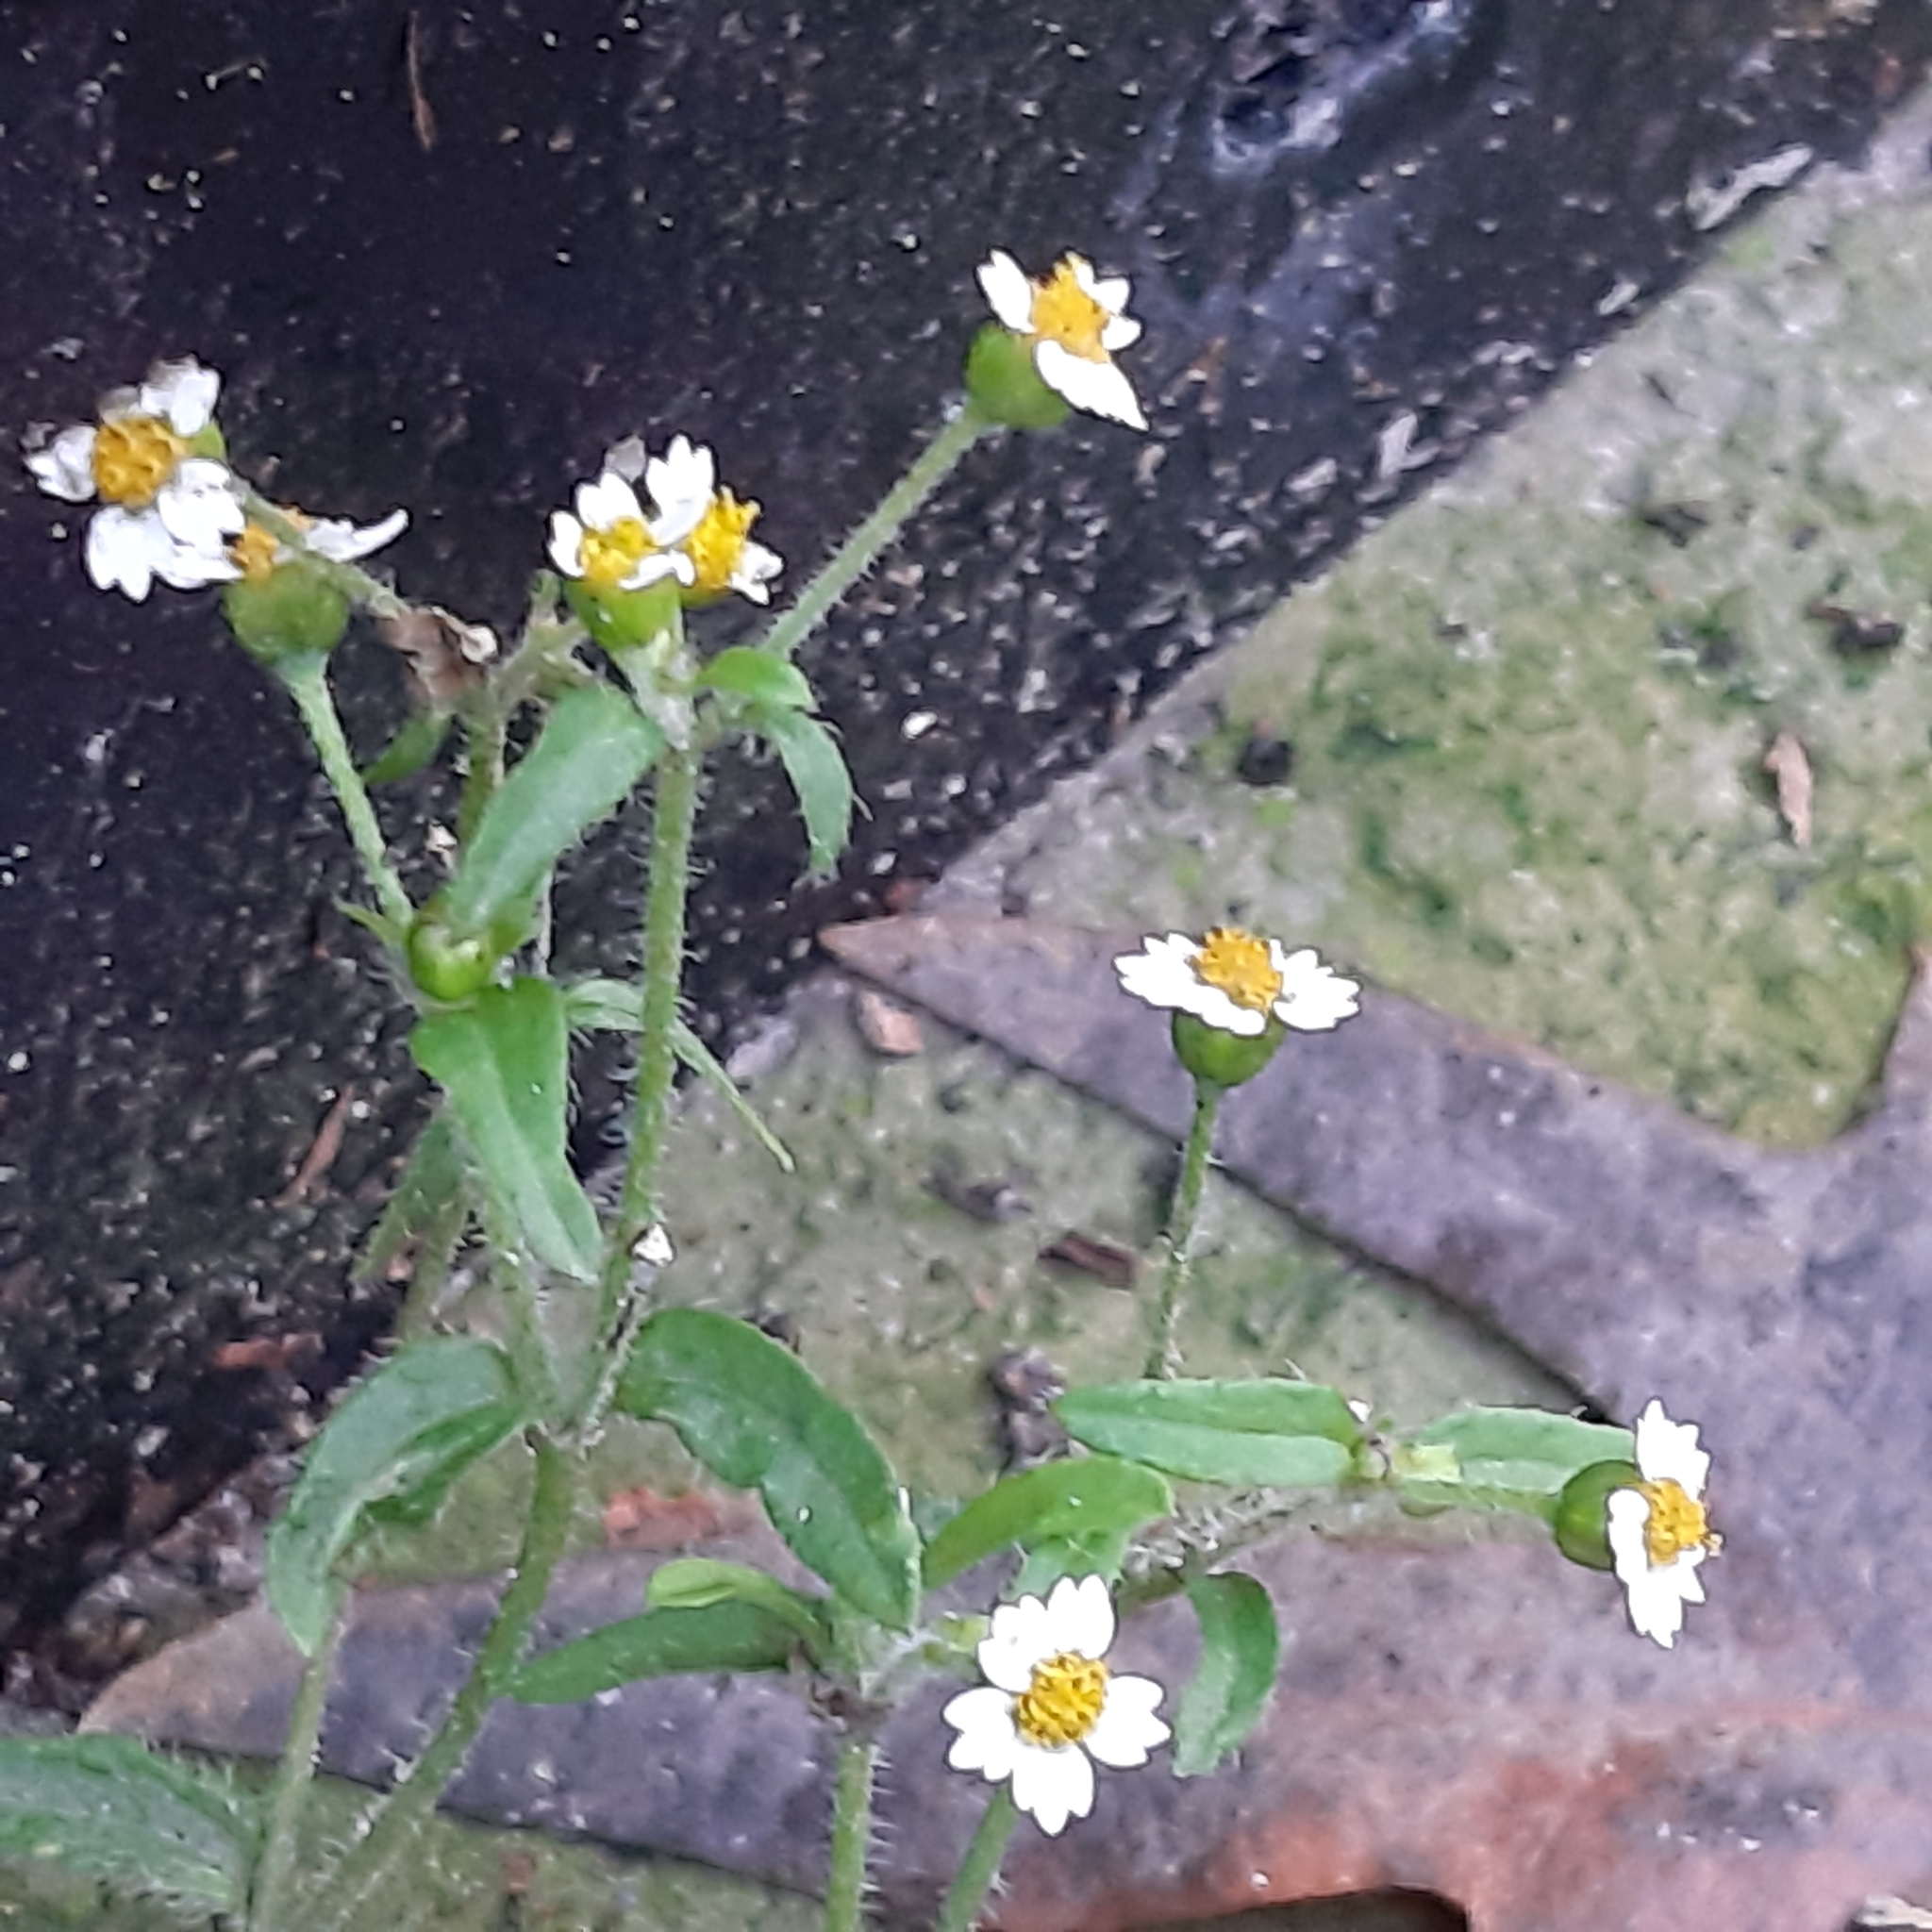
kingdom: Plantae
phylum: Tracheophyta
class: Magnoliopsida
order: Asterales
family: Asteraceae
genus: Galinsoga
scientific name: Galinsoga quadriradiata
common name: Shaggy soldier
